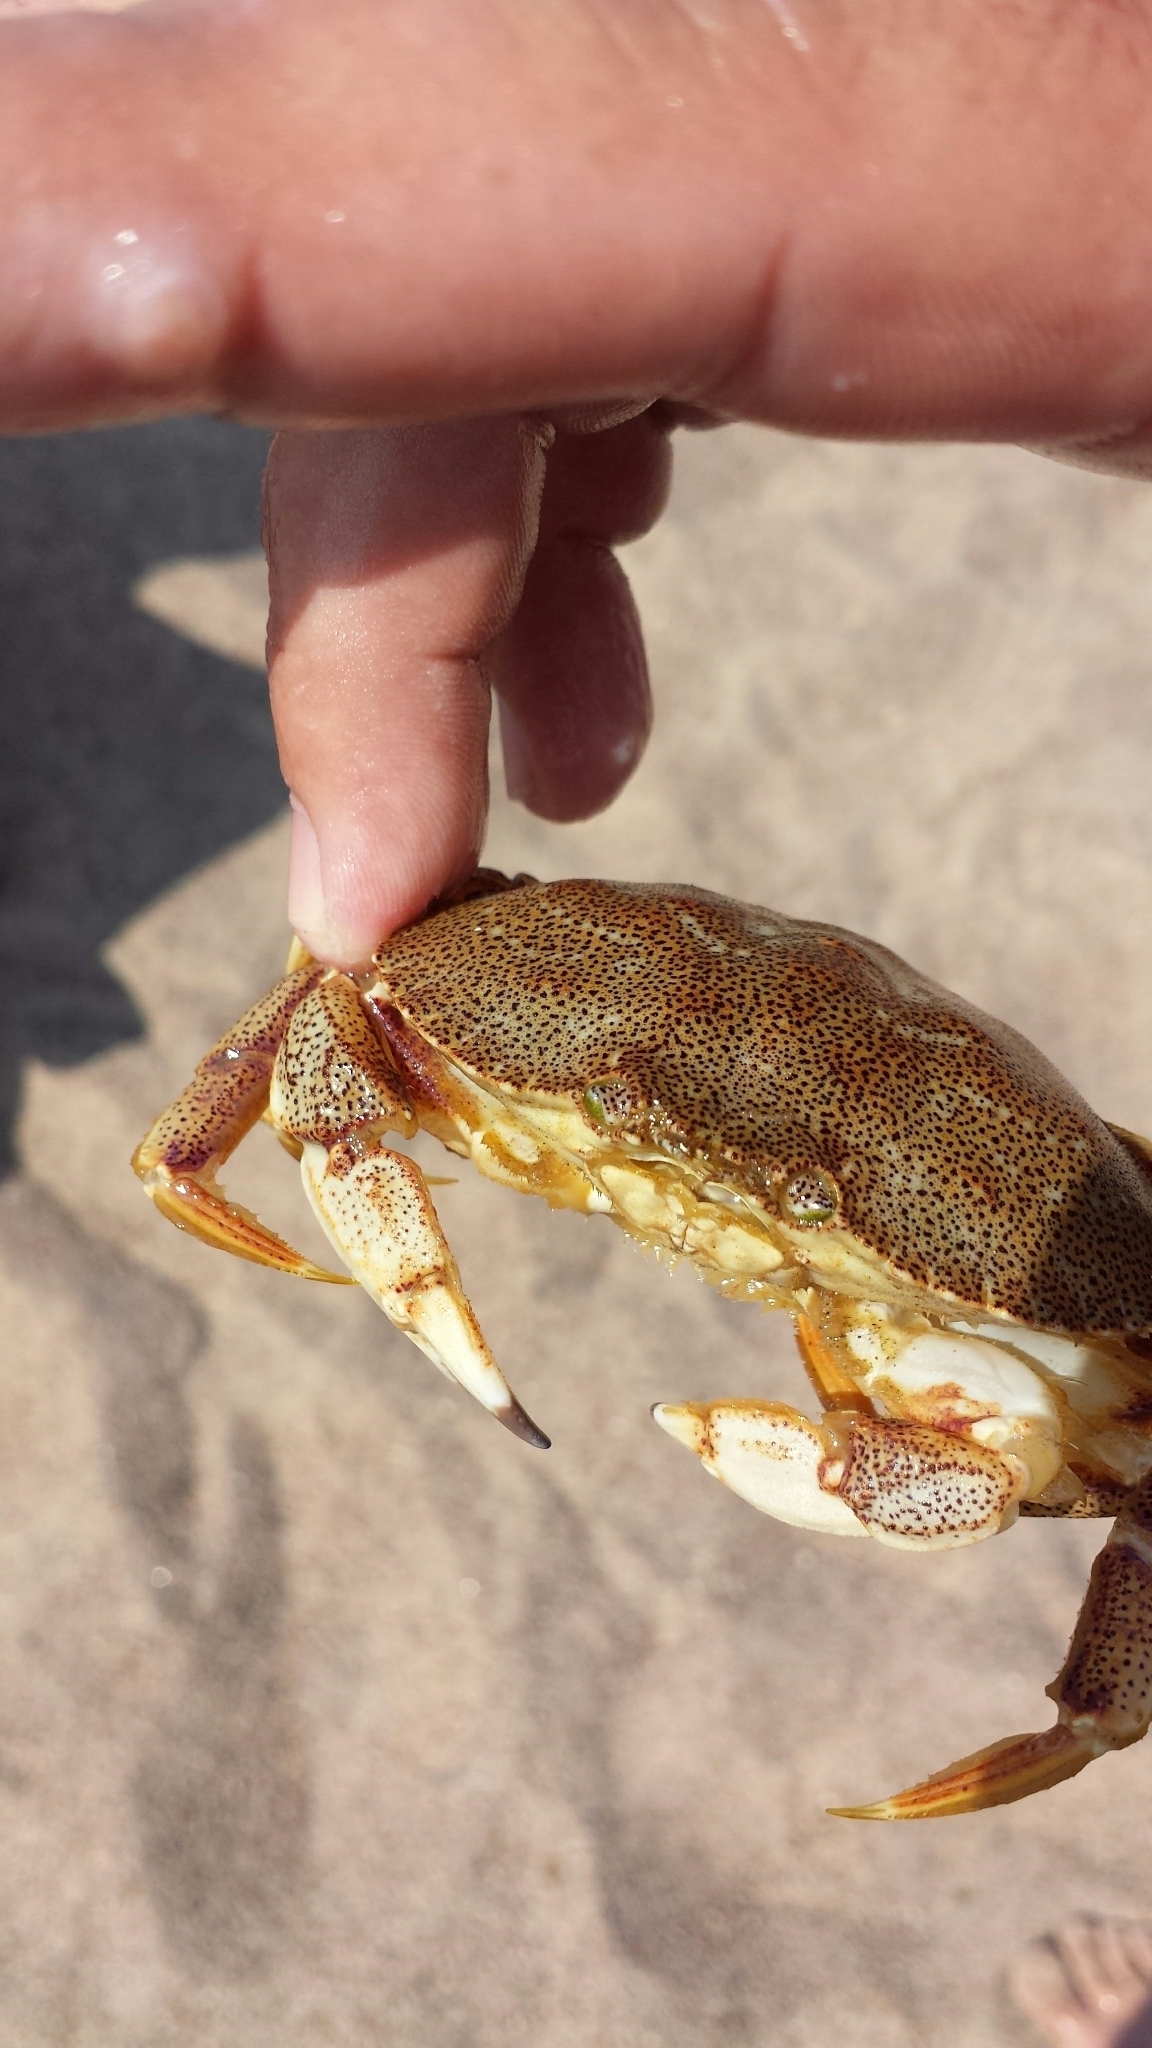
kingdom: Animalia
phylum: Arthropoda
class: Malacostraca
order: Decapoda
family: Cancridae
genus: Cancer
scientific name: Cancer irroratus
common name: Atlantic rock crab
